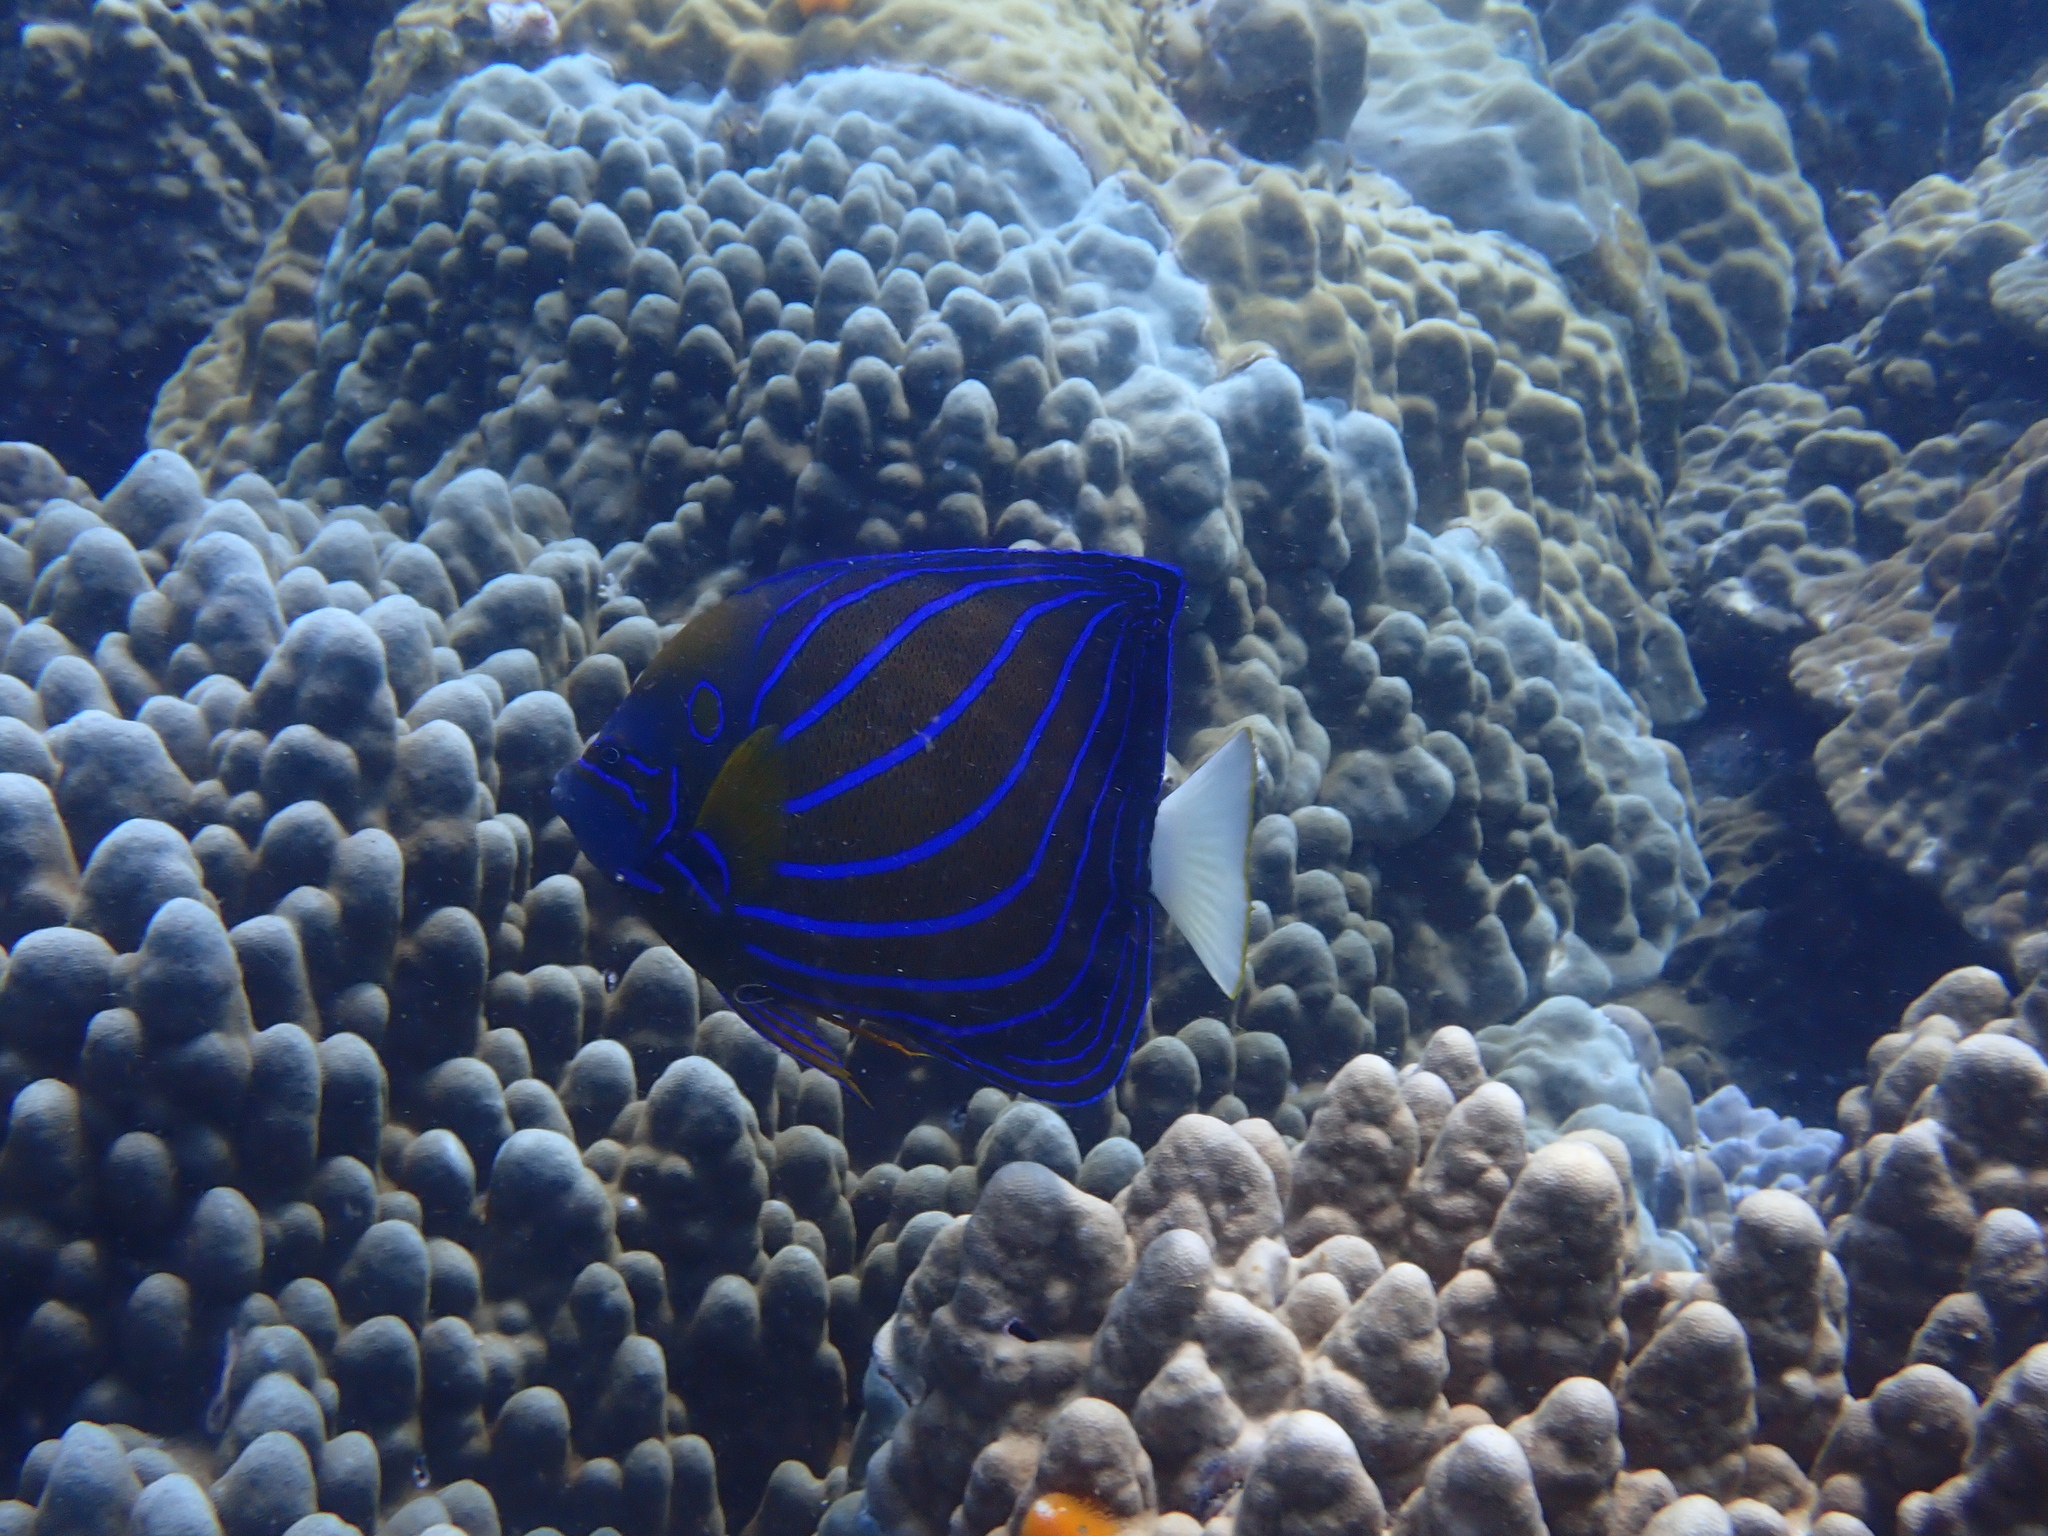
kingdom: Animalia
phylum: Chordata
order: Perciformes
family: Pomacanthidae
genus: Pomacanthus
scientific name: Pomacanthus annularis
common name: Bluering angelfish
